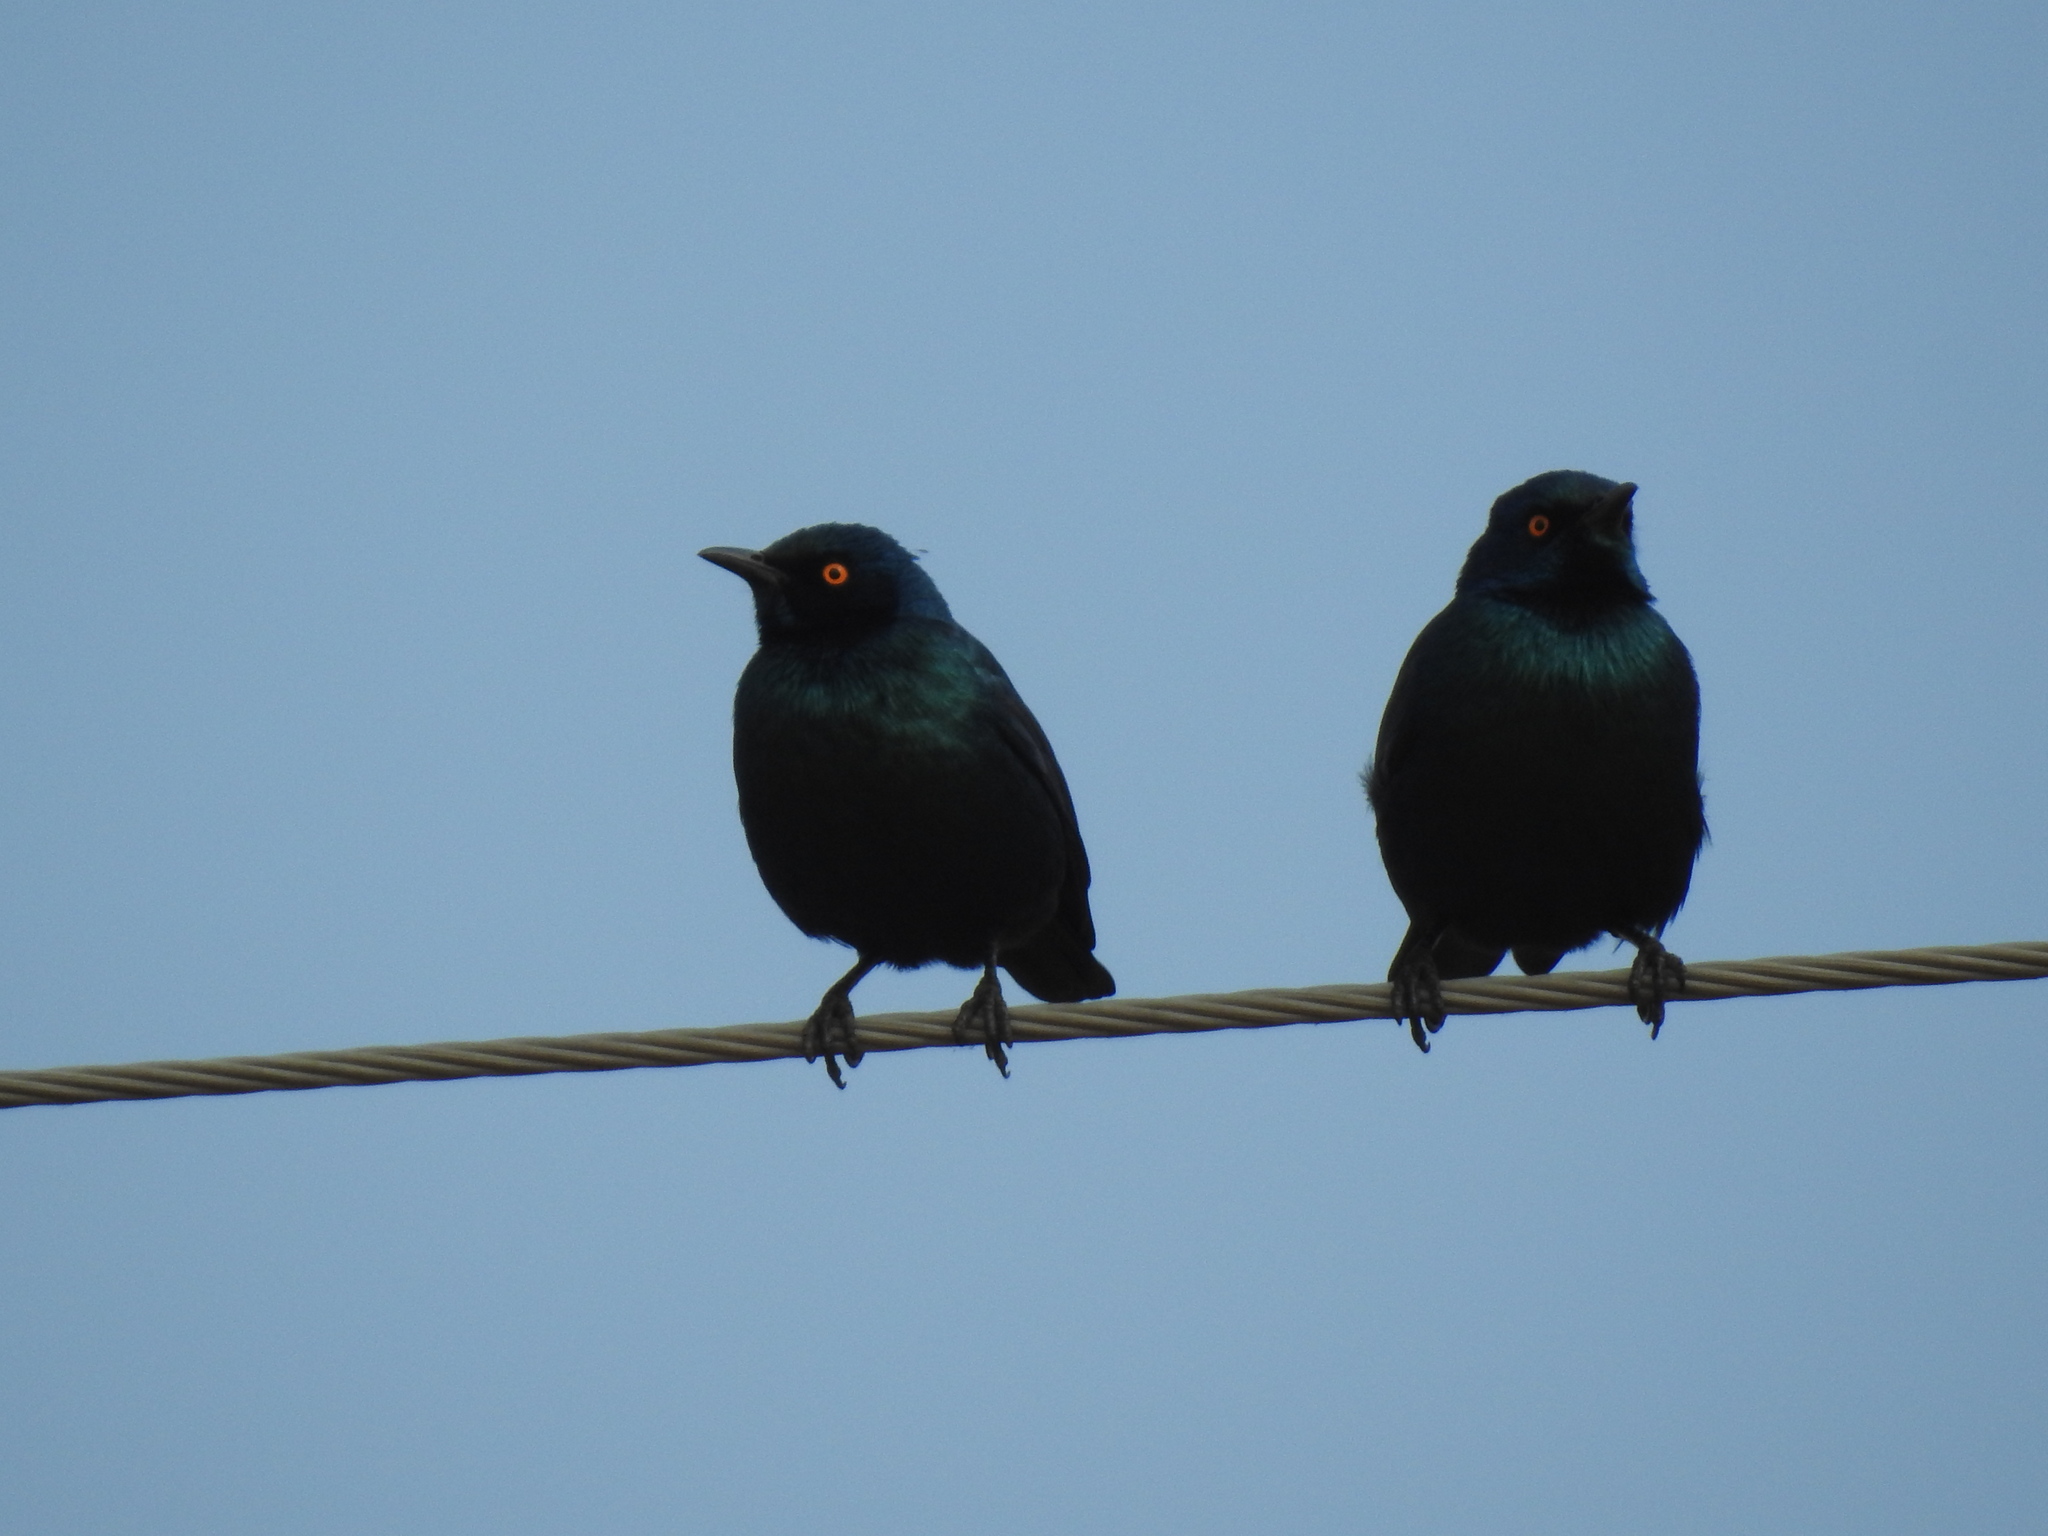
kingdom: Animalia
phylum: Chordata
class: Aves
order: Passeriformes
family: Sturnidae
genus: Lamprotornis
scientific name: Lamprotornis nitens
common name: Cape starling
